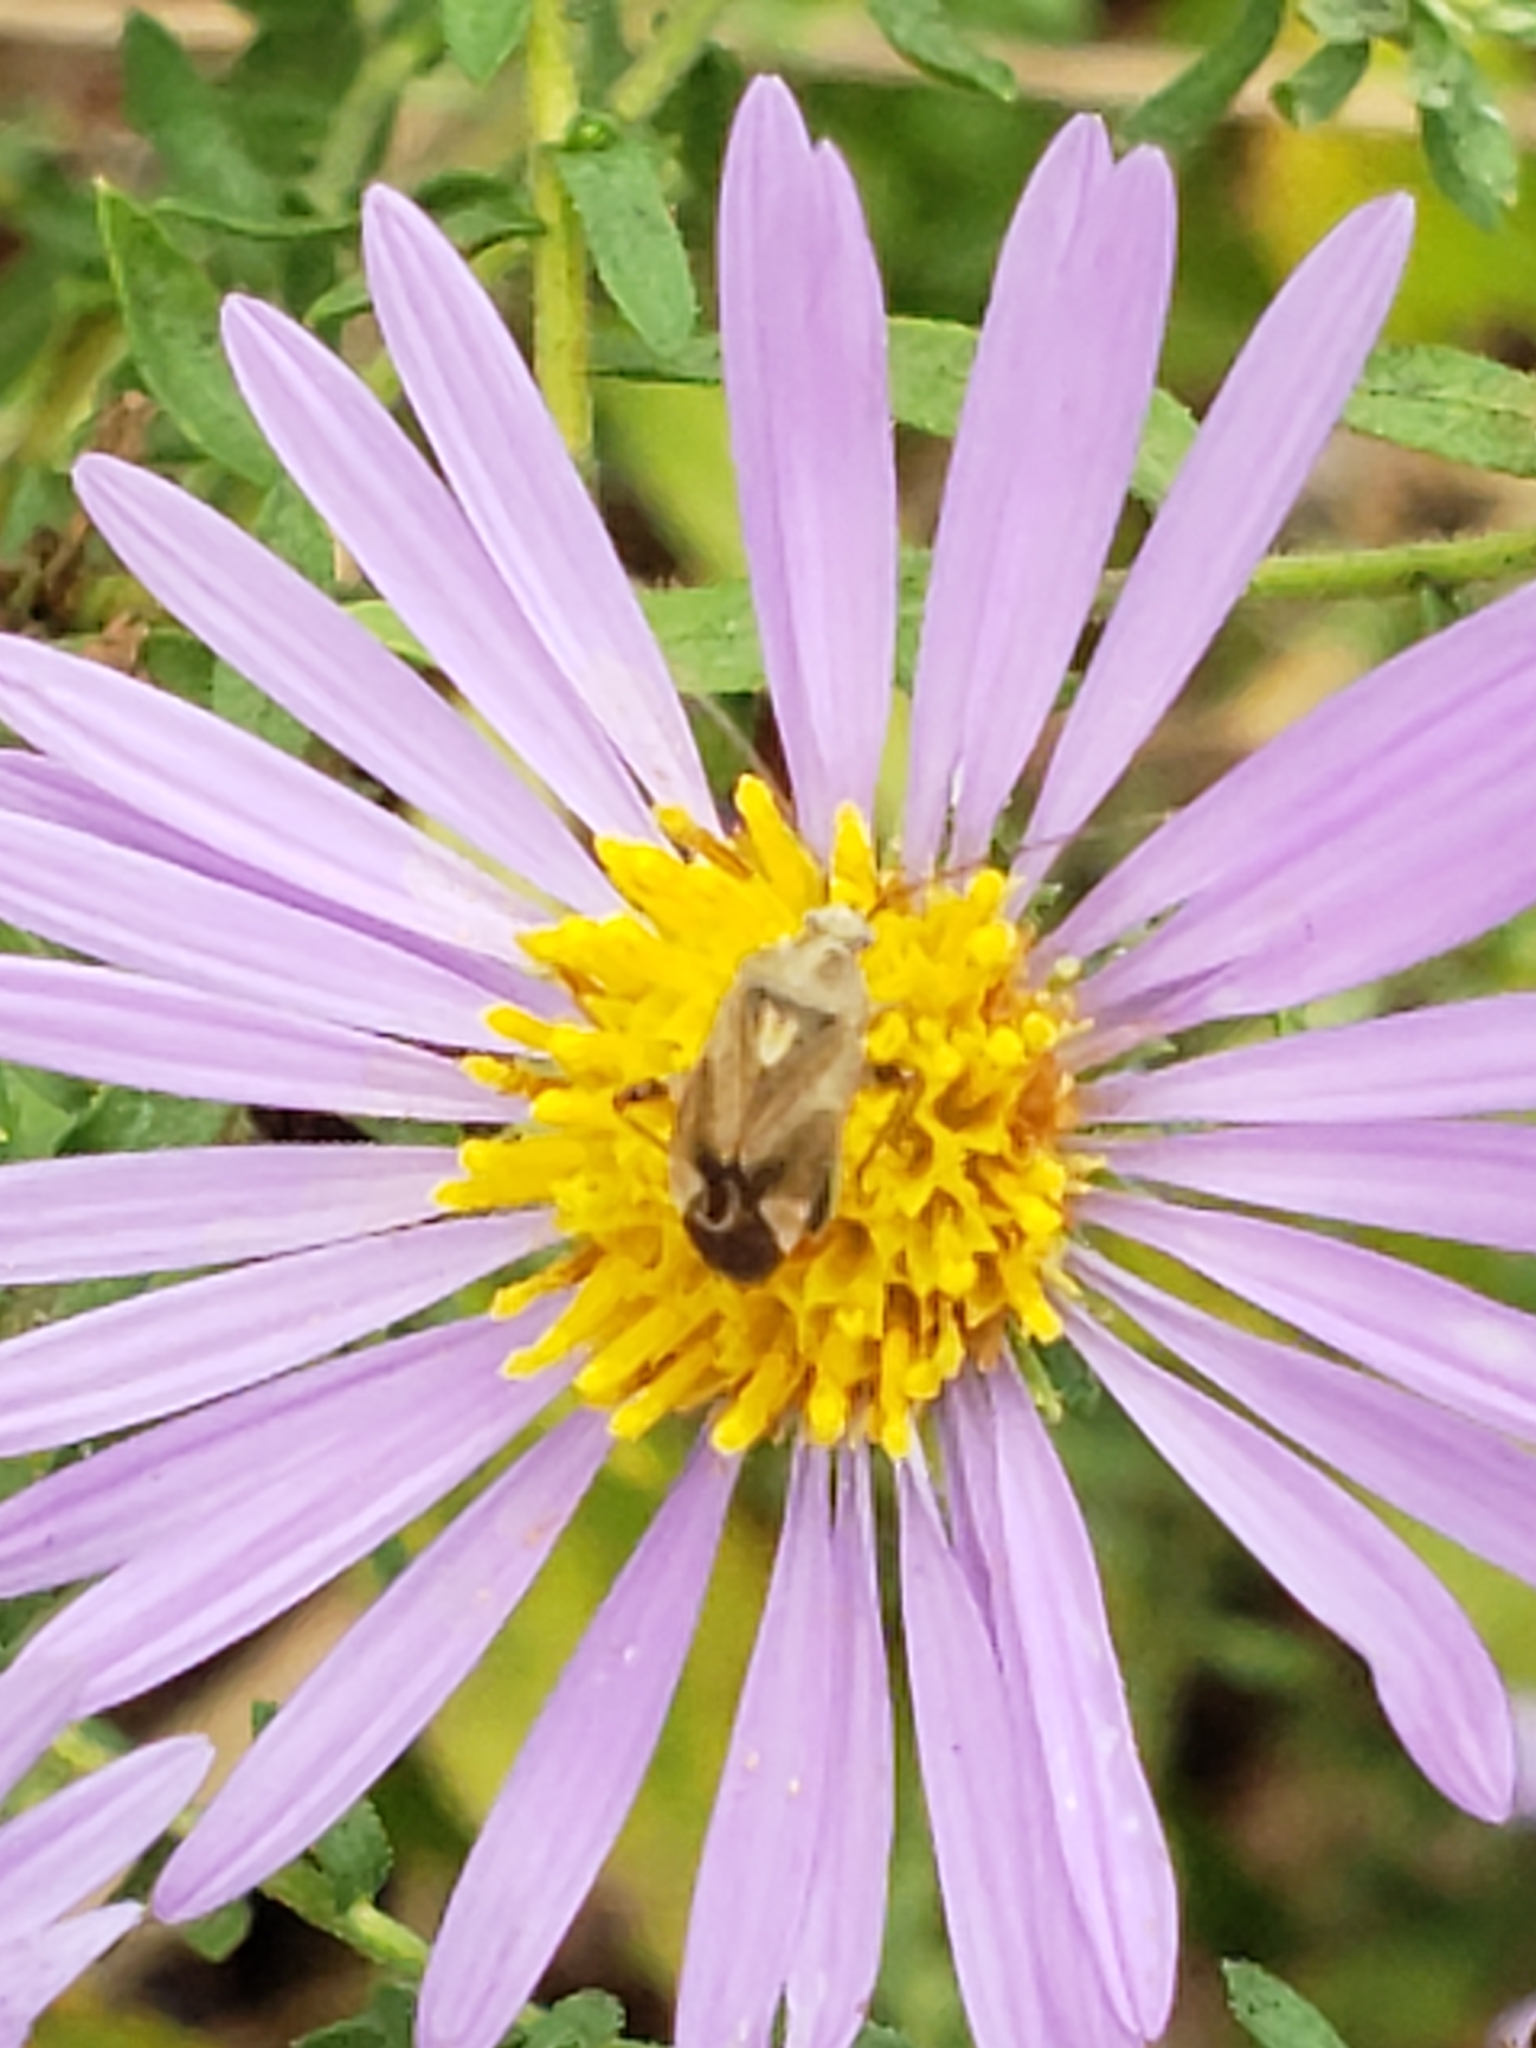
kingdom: Animalia
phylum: Arthropoda
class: Insecta
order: Hemiptera
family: Miridae
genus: Lygus
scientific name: Lygus lineolaris
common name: North american tarnished plant bug
